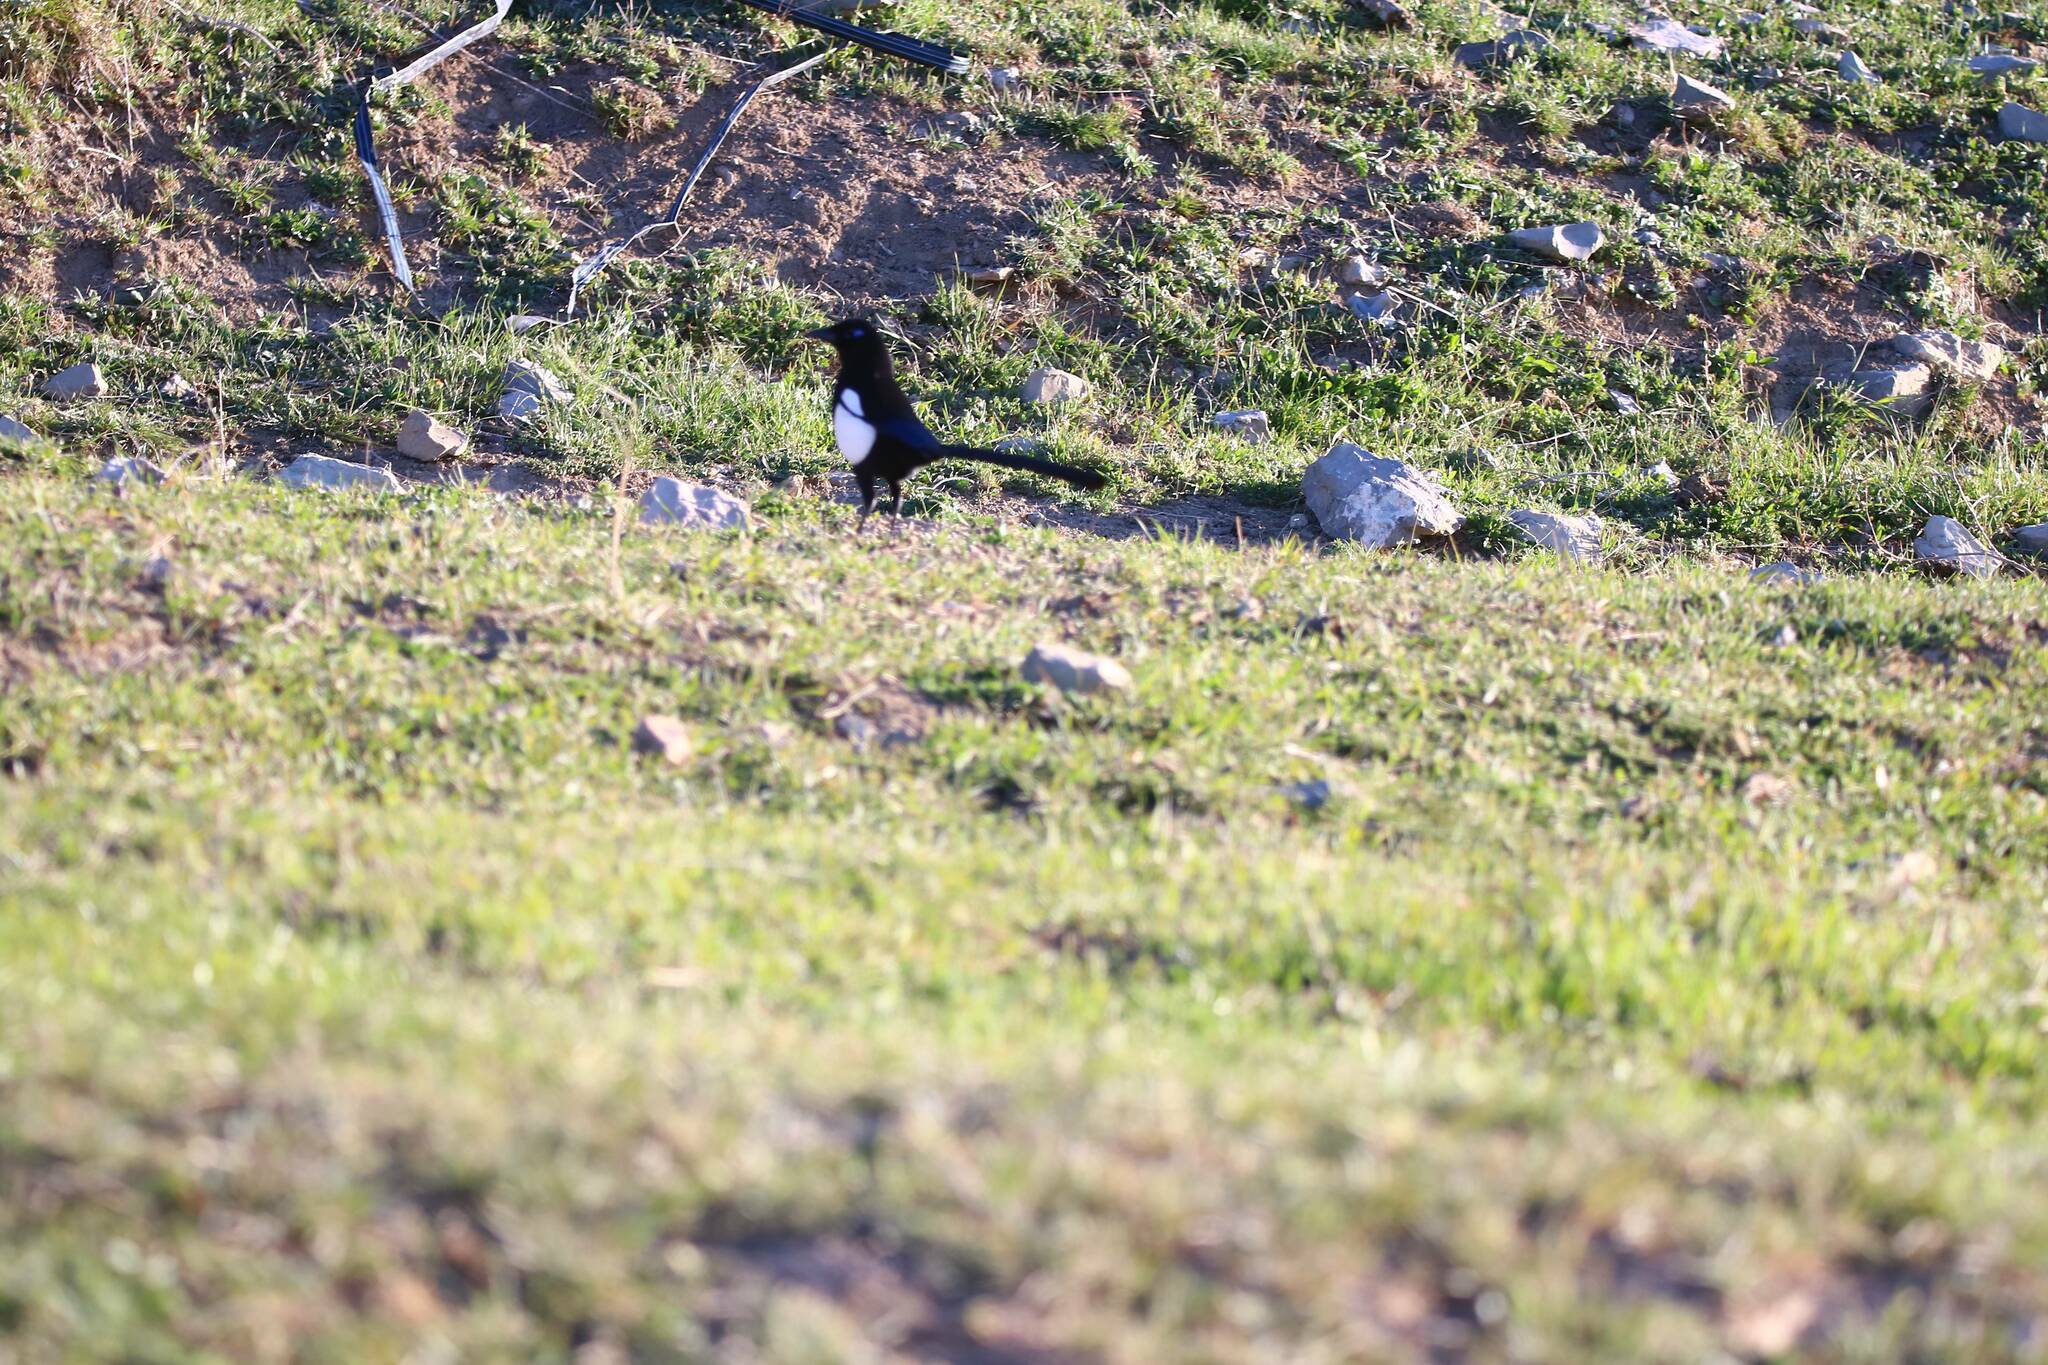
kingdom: Animalia
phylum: Chordata
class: Aves
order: Passeriformes
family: Corvidae
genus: Pica
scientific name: Pica mauritanica
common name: Maghreb magpie
